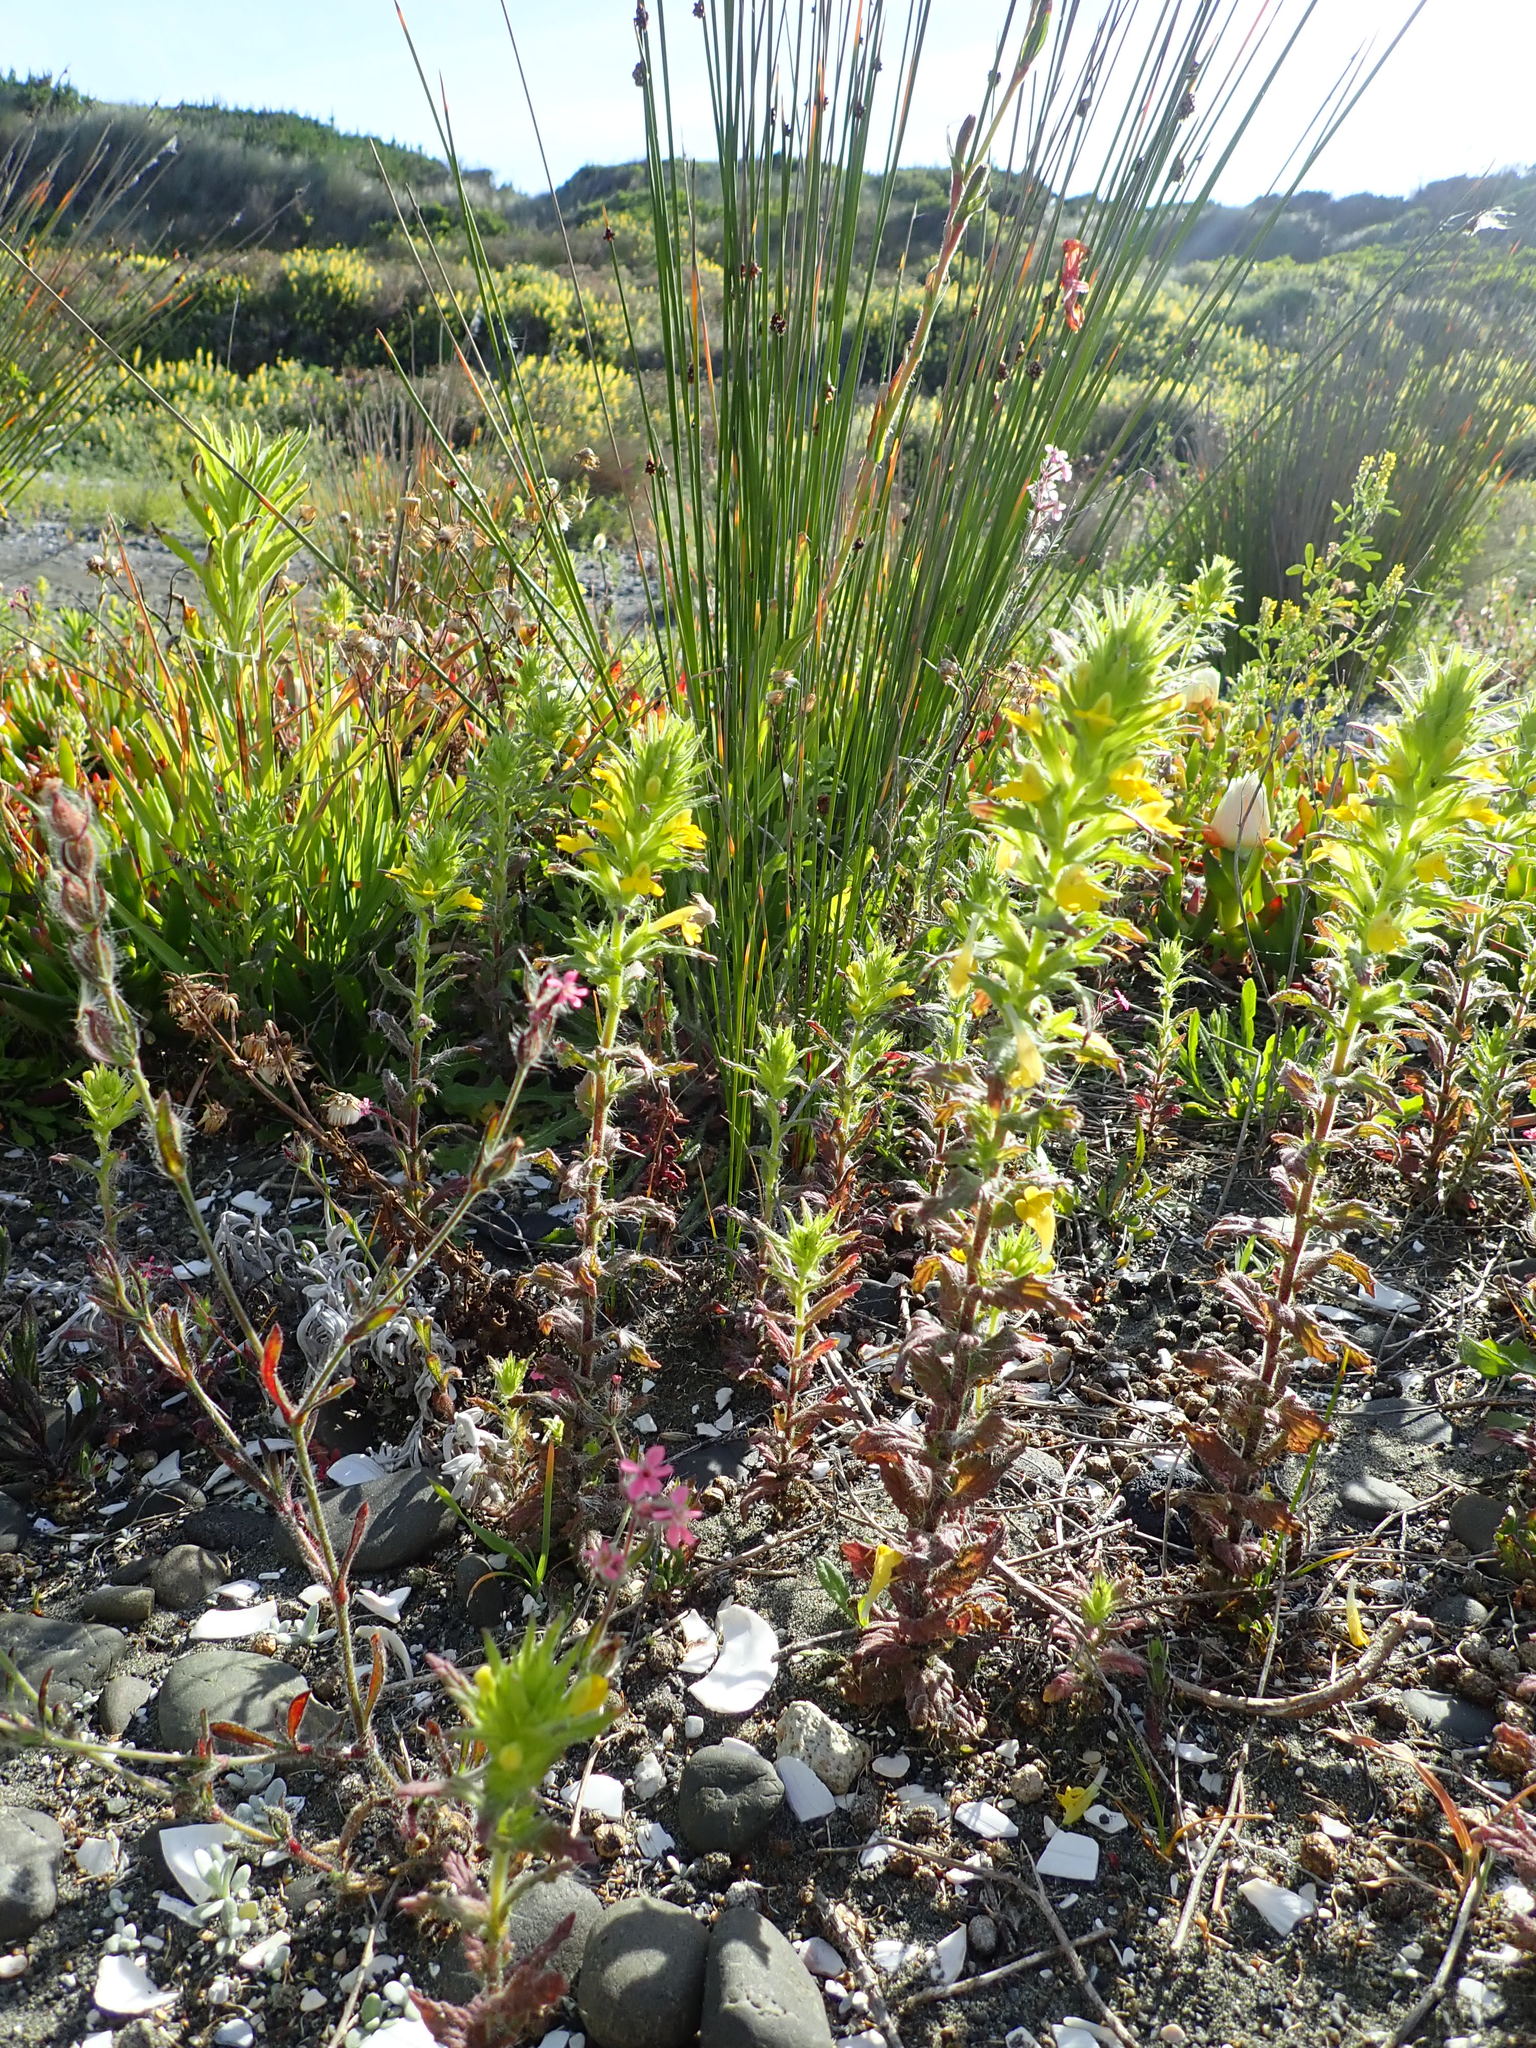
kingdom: Plantae
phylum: Tracheophyta
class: Magnoliopsida
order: Lamiales
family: Orobanchaceae
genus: Bellardia
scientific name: Bellardia viscosa
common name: Sticky parentucellia
